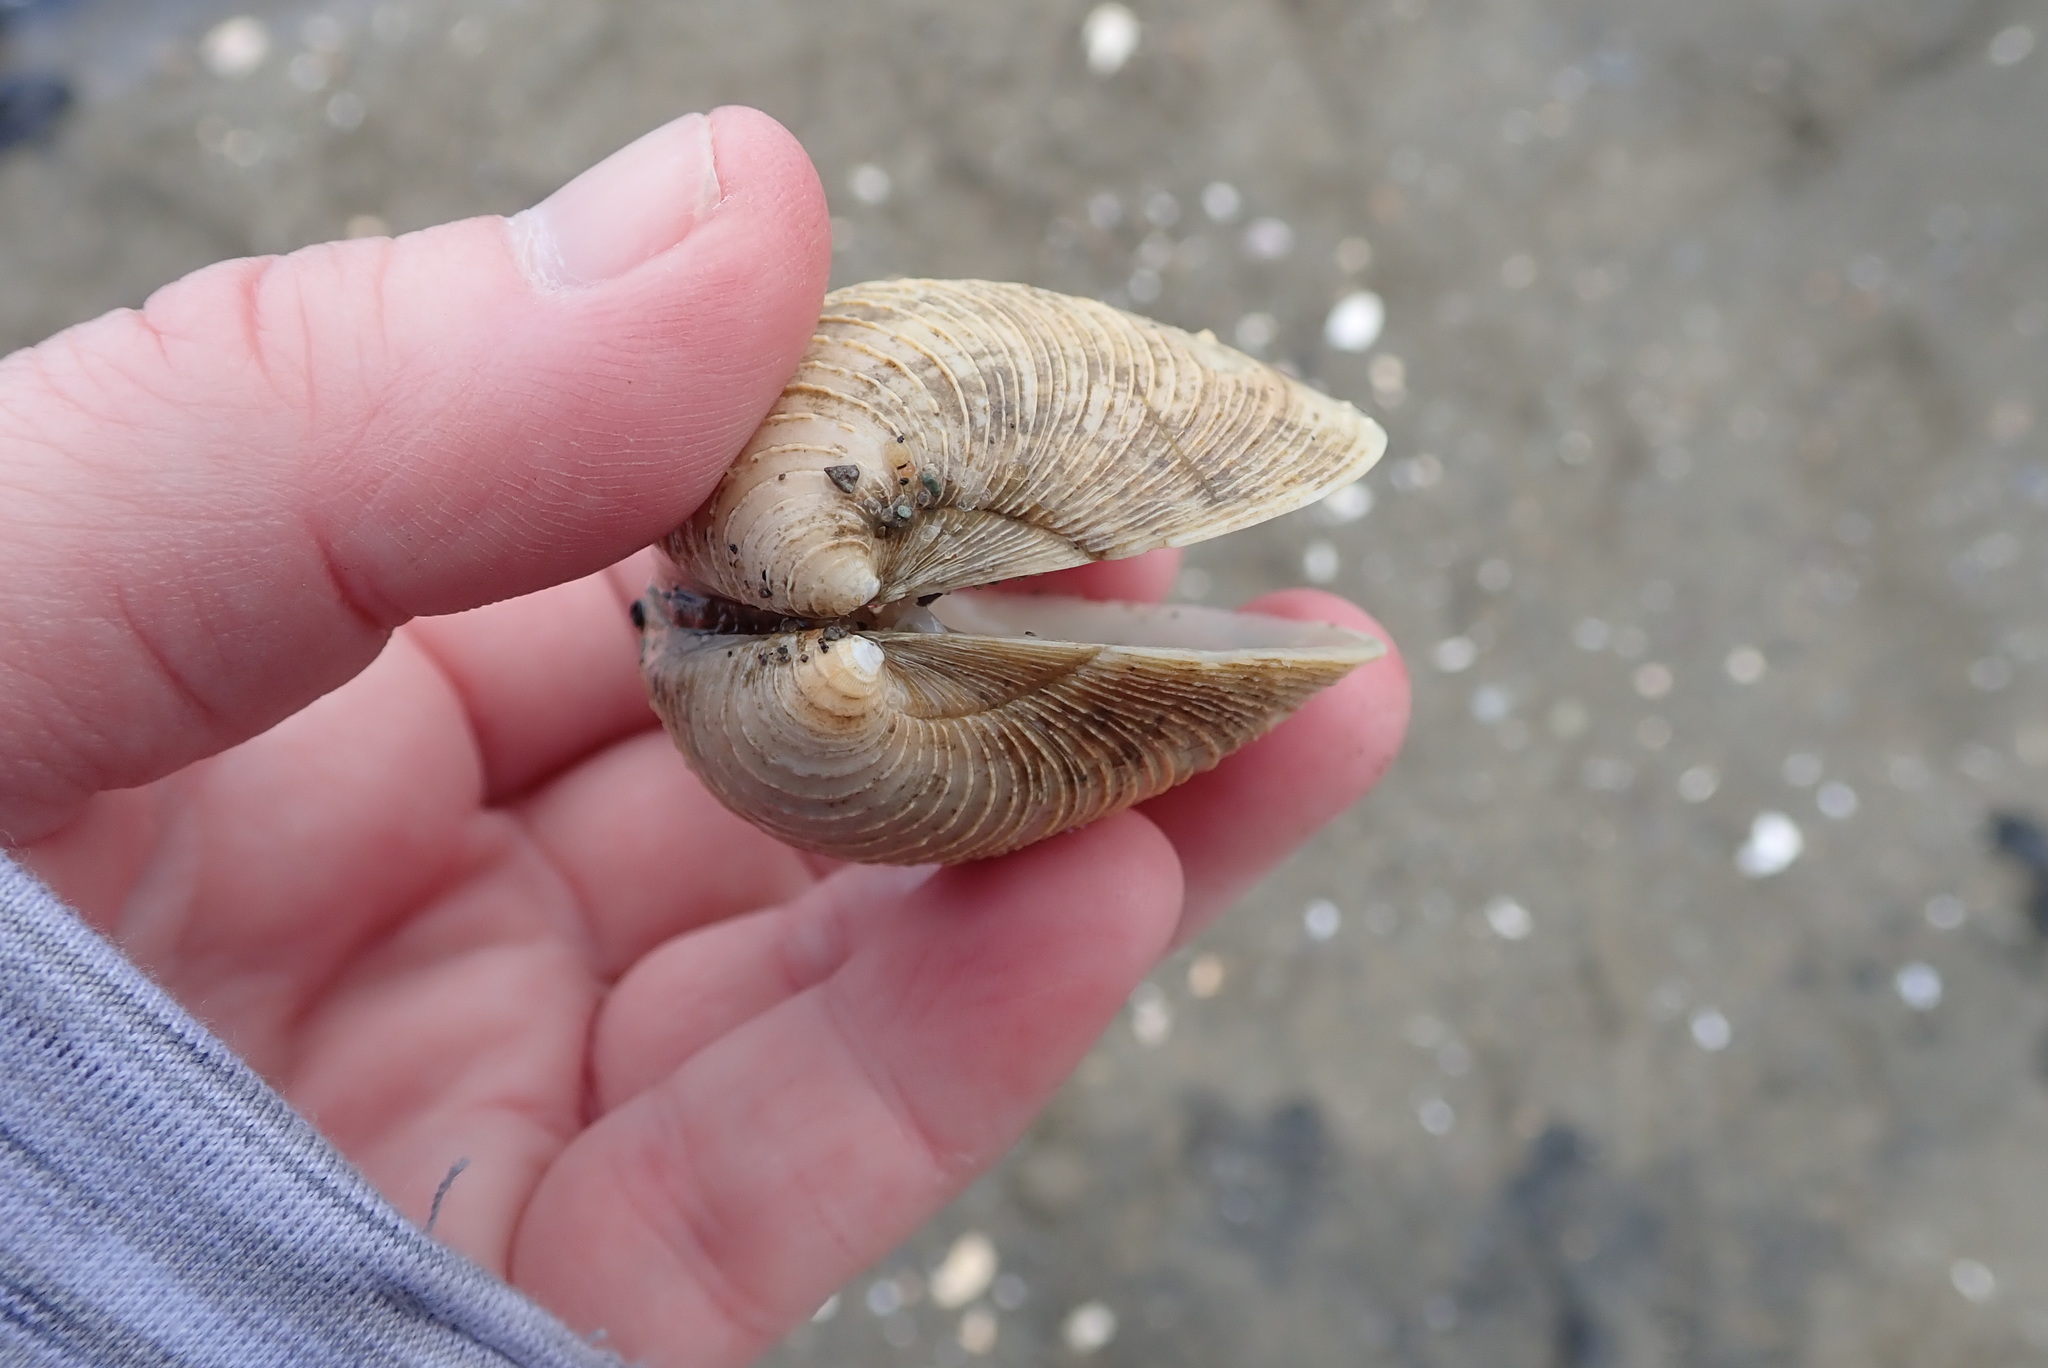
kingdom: Animalia
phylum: Mollusca
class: Bivalvia
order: Venerida
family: Veneridae
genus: Mercenaria
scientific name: Mercenaria mercenaria
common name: American hard-shelled clam
